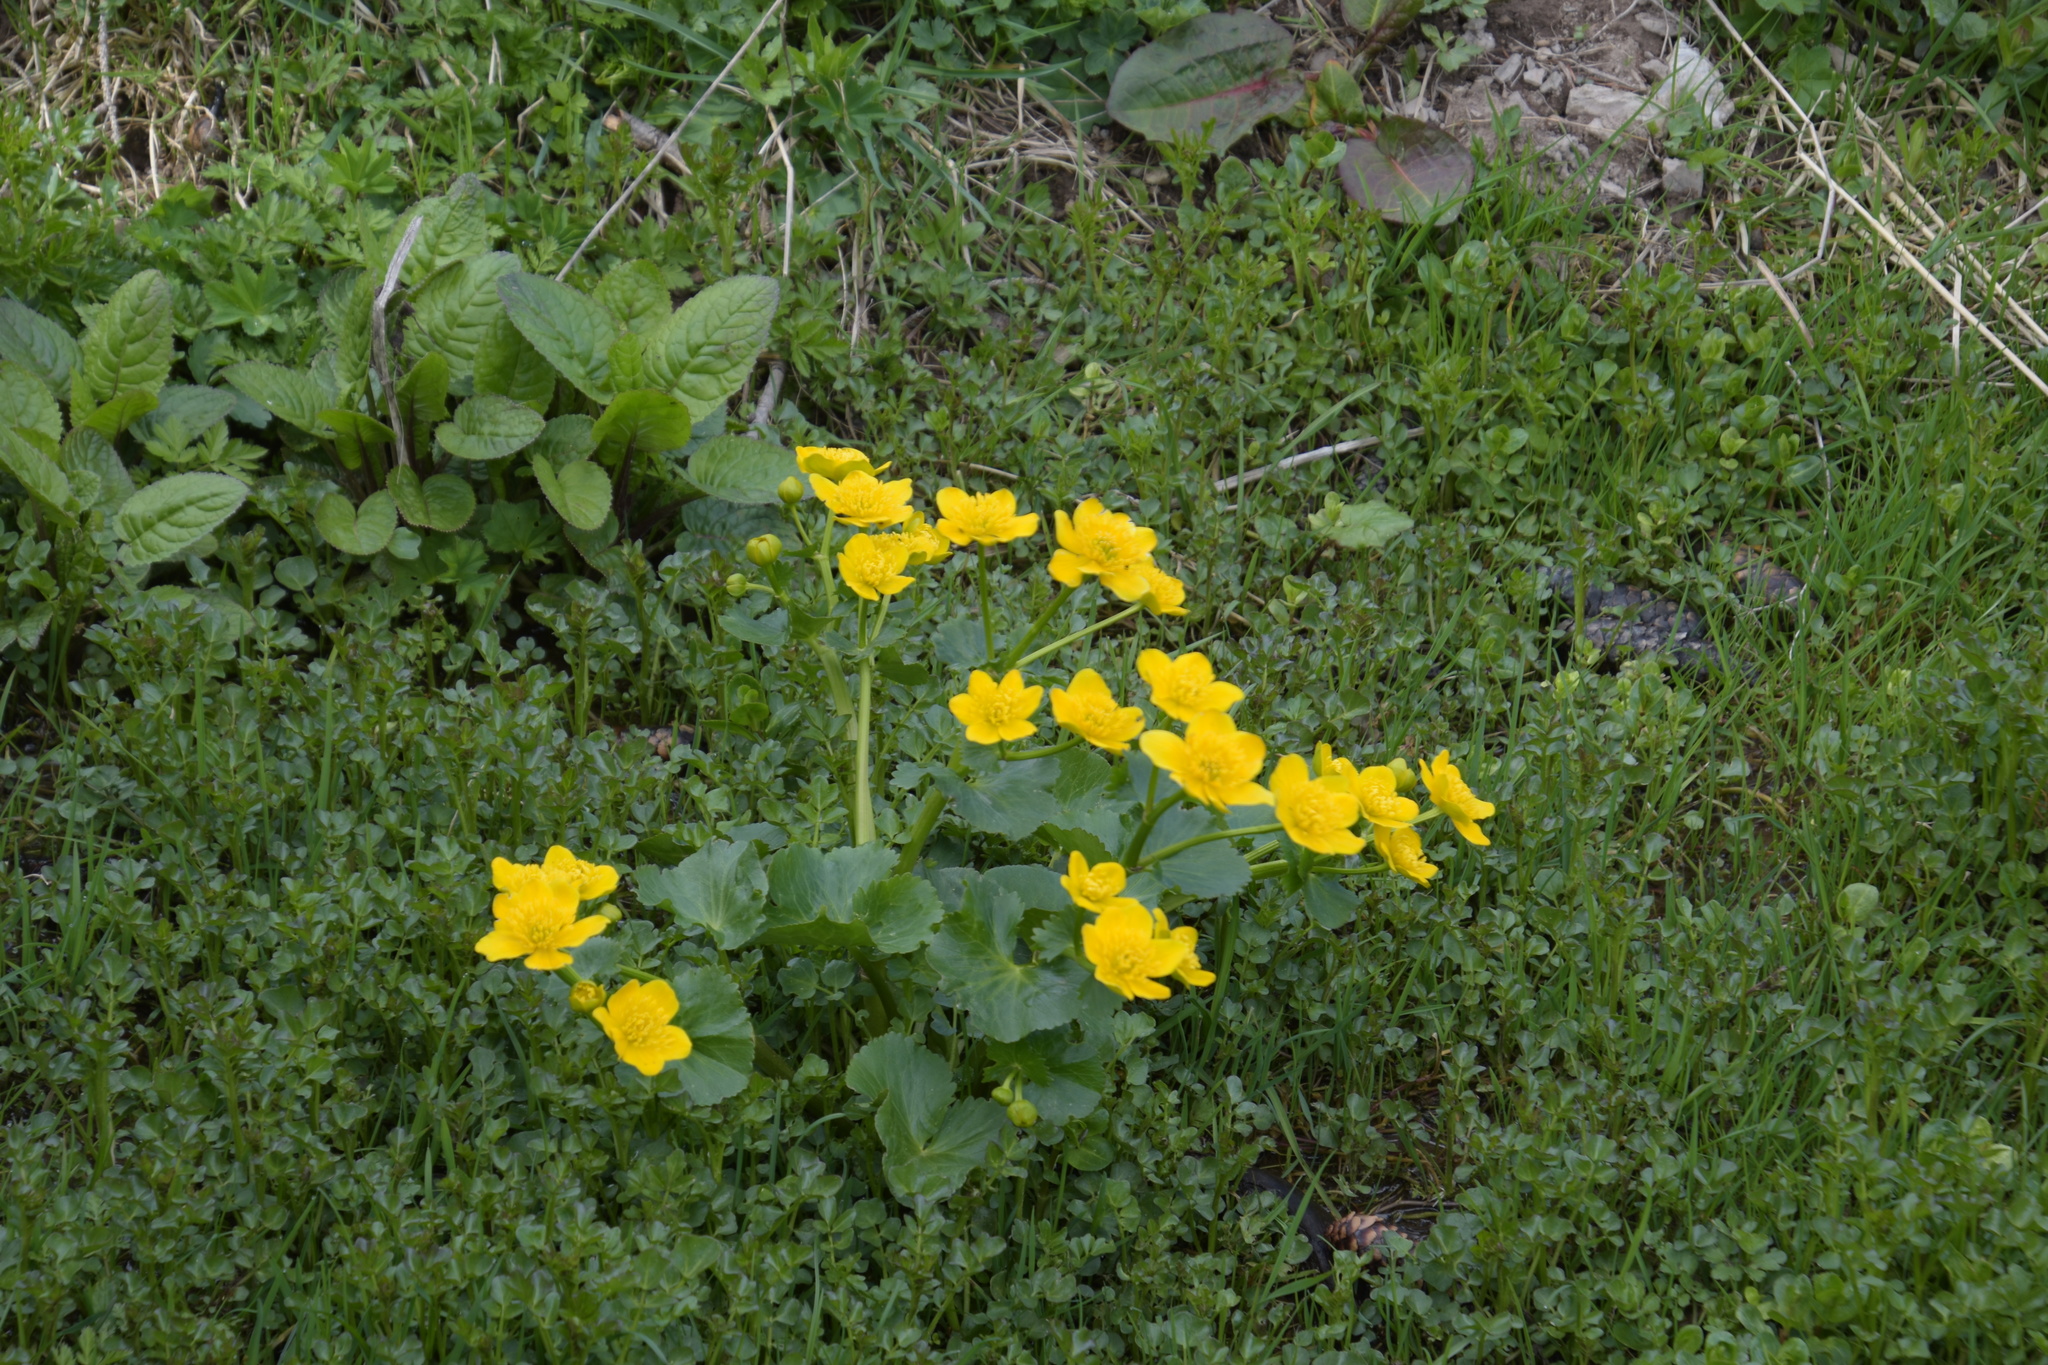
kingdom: Plantae
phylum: Tracheophyta
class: Magnoliopsida
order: Ranunculales
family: Ranunculaceae
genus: Caltha
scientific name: Caltha palustris
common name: Marsh marigold
